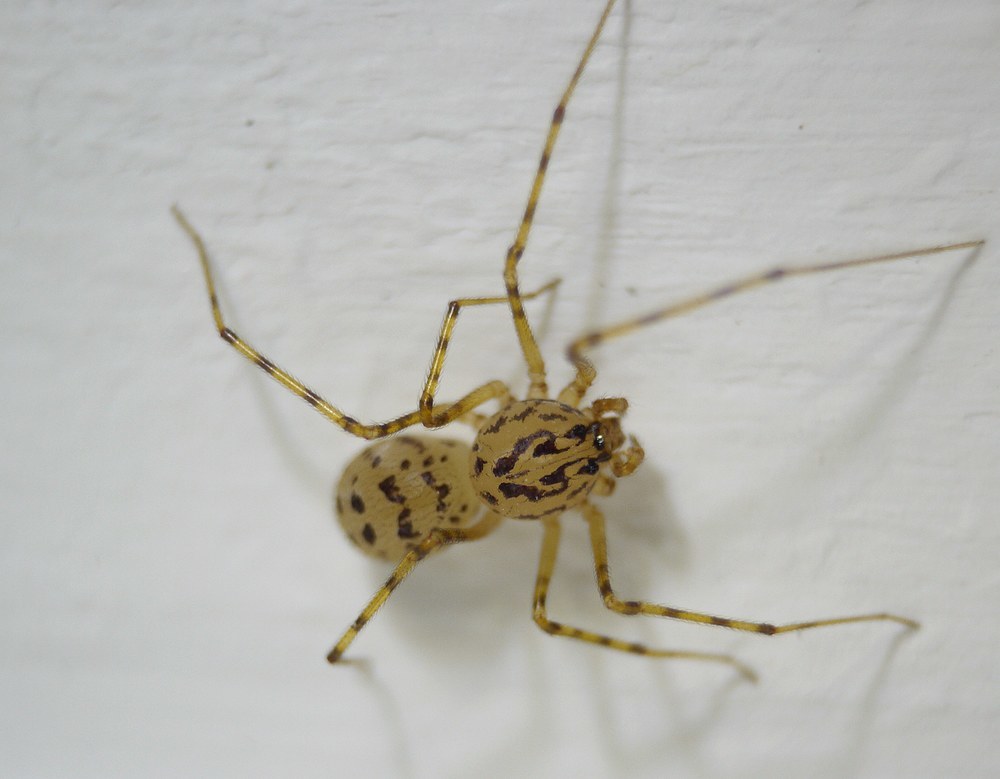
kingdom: Animalia
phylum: Arthropoda
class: Arachnida
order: Araneae
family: Scytodidae
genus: Scytodes
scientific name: Scytodes thoracica
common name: Spitting spider
